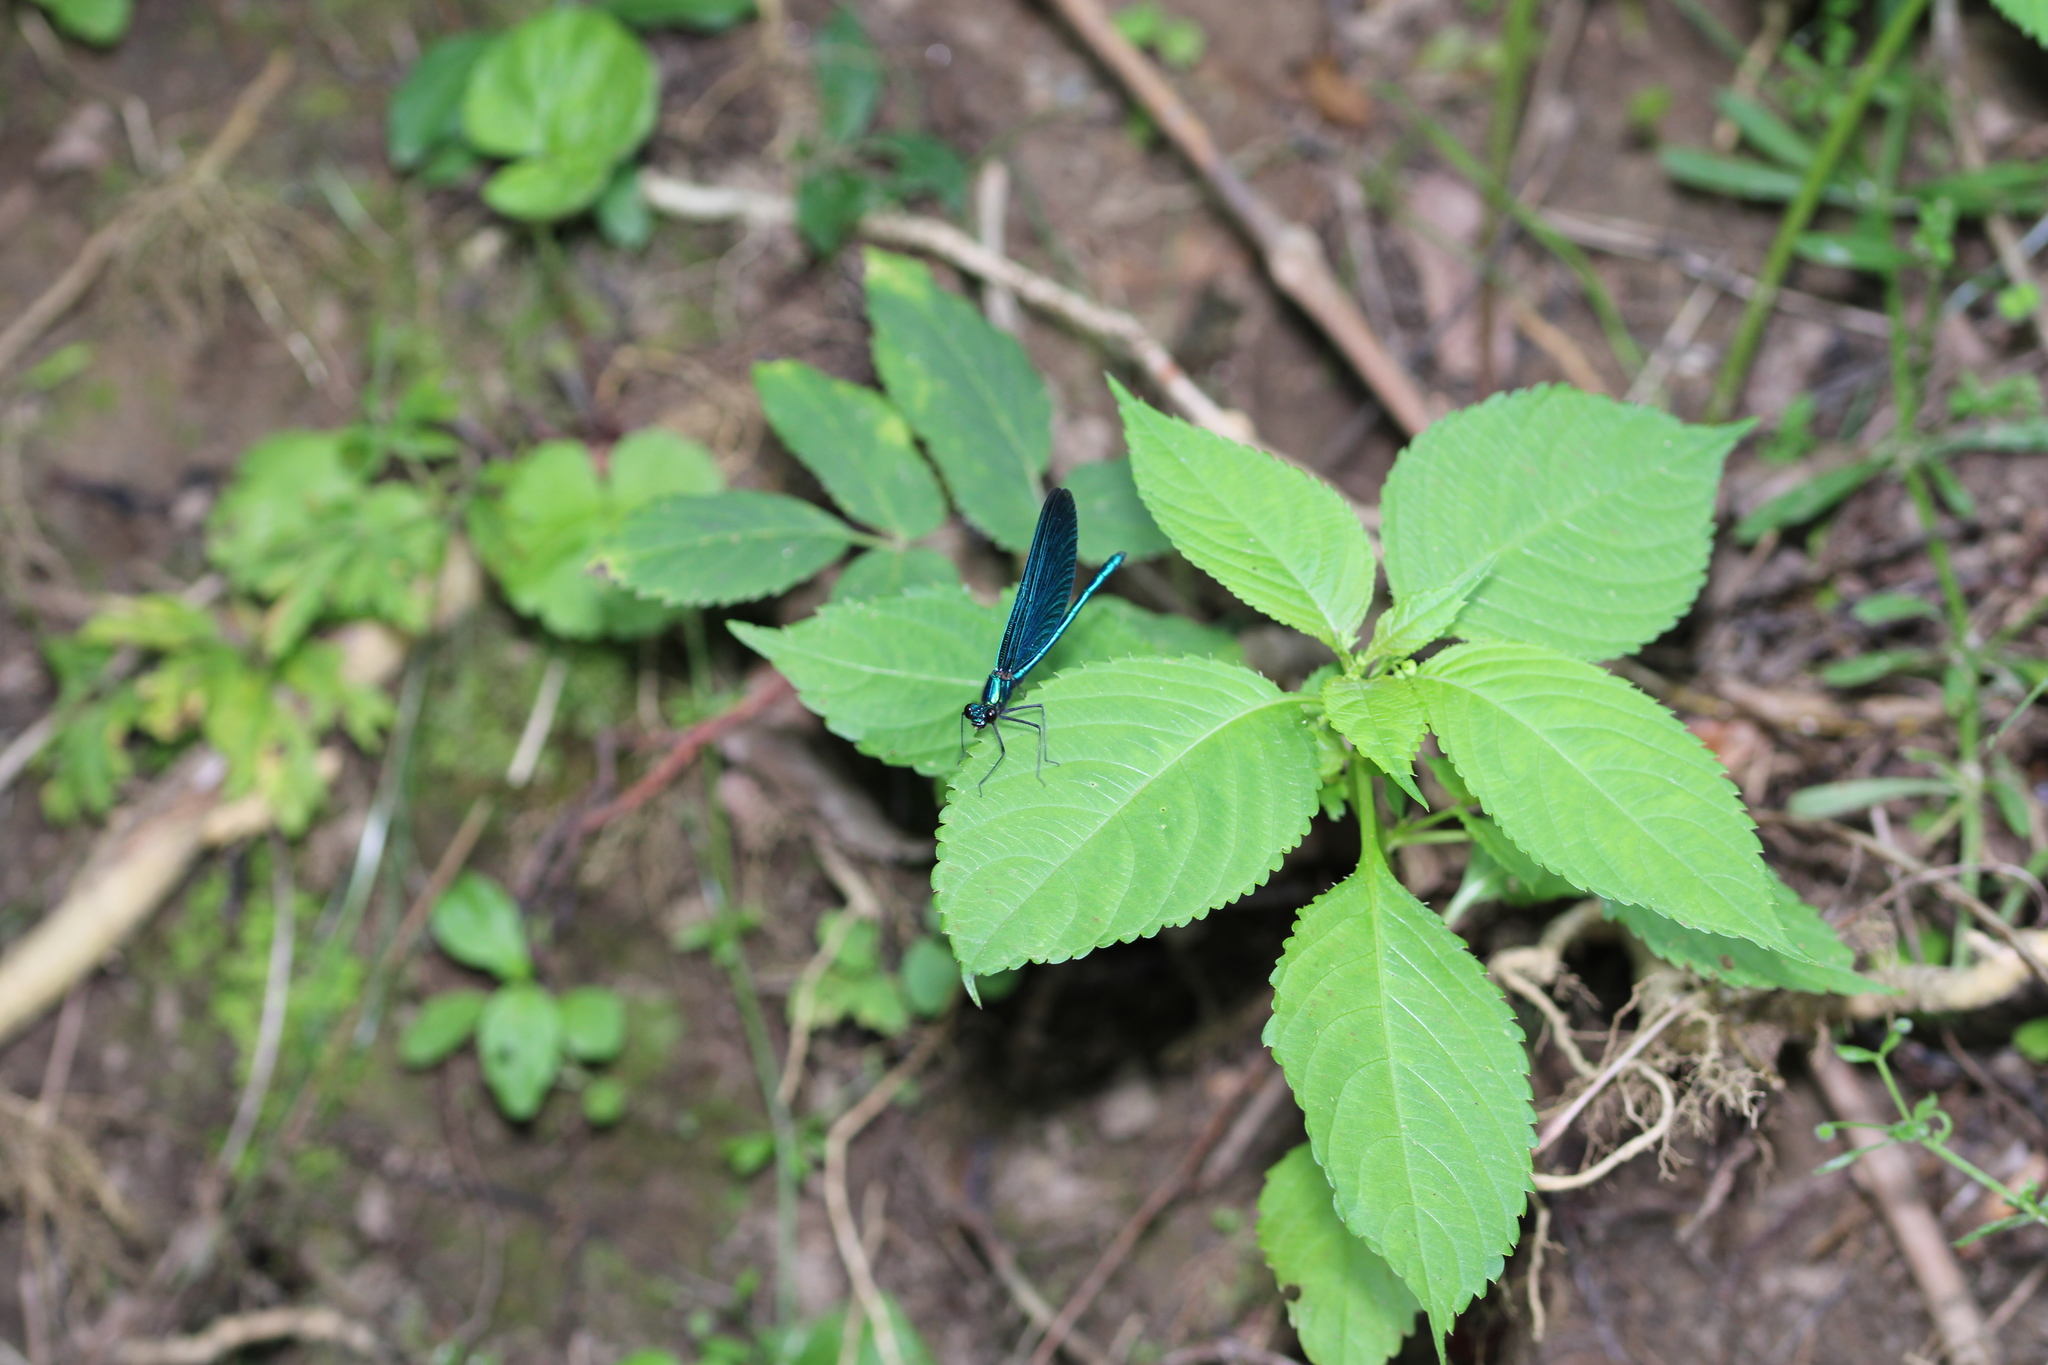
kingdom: Animalia
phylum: Arthropoda
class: Insecta
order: Odonata
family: Calopterygidae
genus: Calopteryx
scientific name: Calopteryx virgo
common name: Beautiful demoiselle
